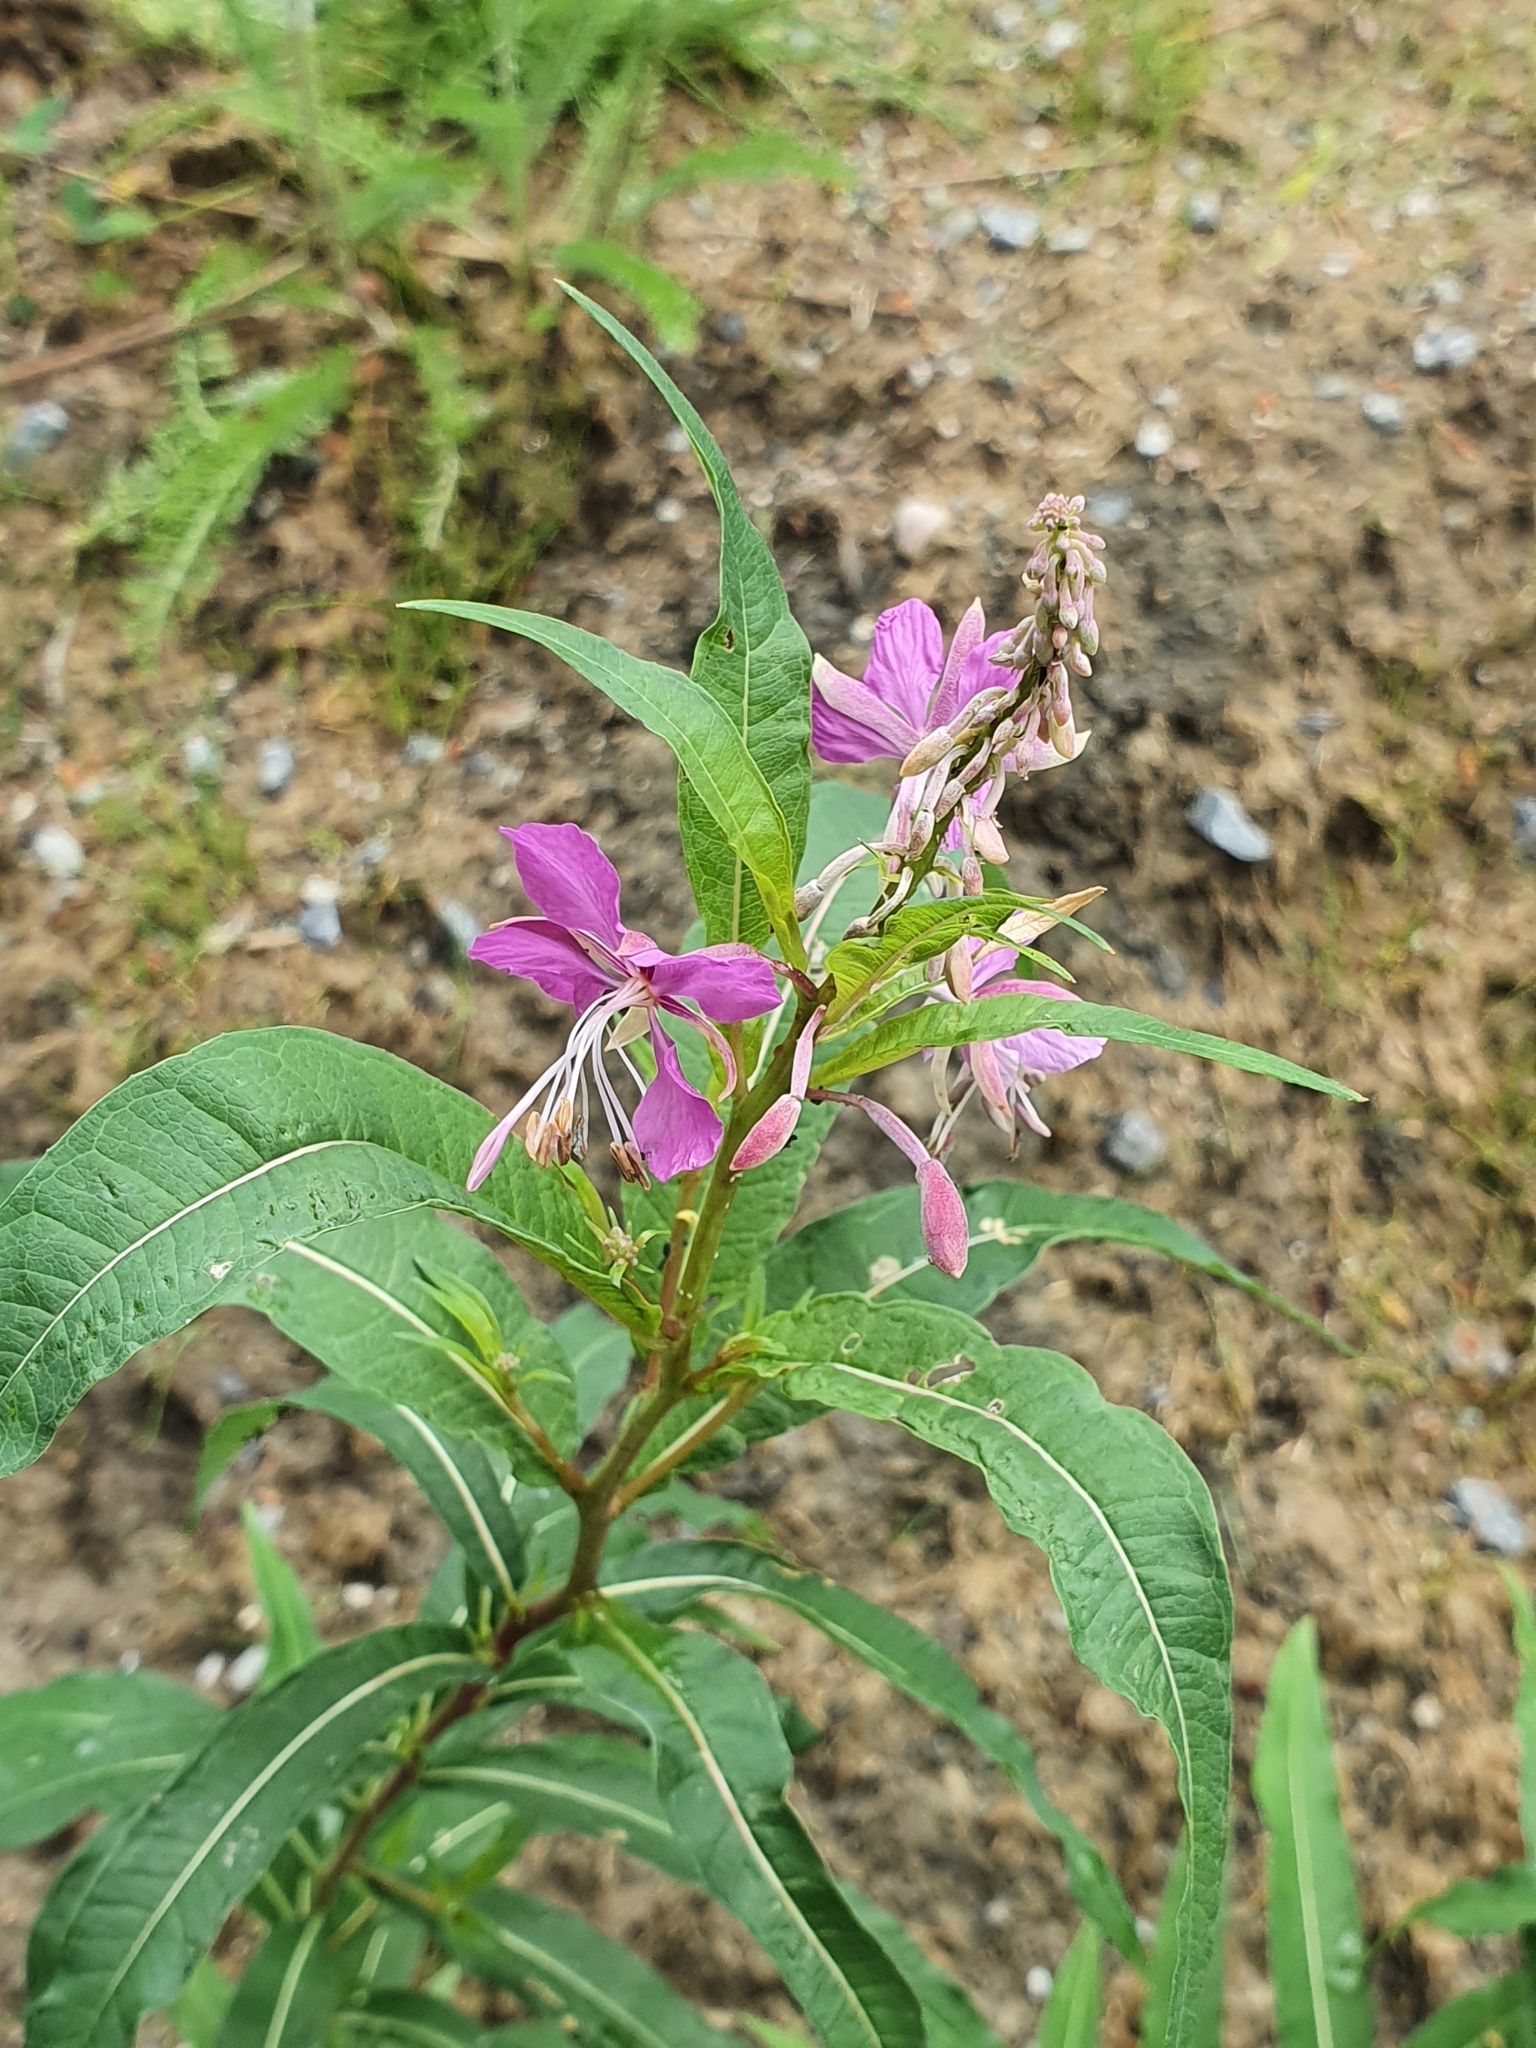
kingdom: Plantae
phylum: Tracheophyta
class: Magnoliopsida
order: Myrtales
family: Onagraceae
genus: Chamaenerion
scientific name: Chamaenerion angustifolium
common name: Fireweed
